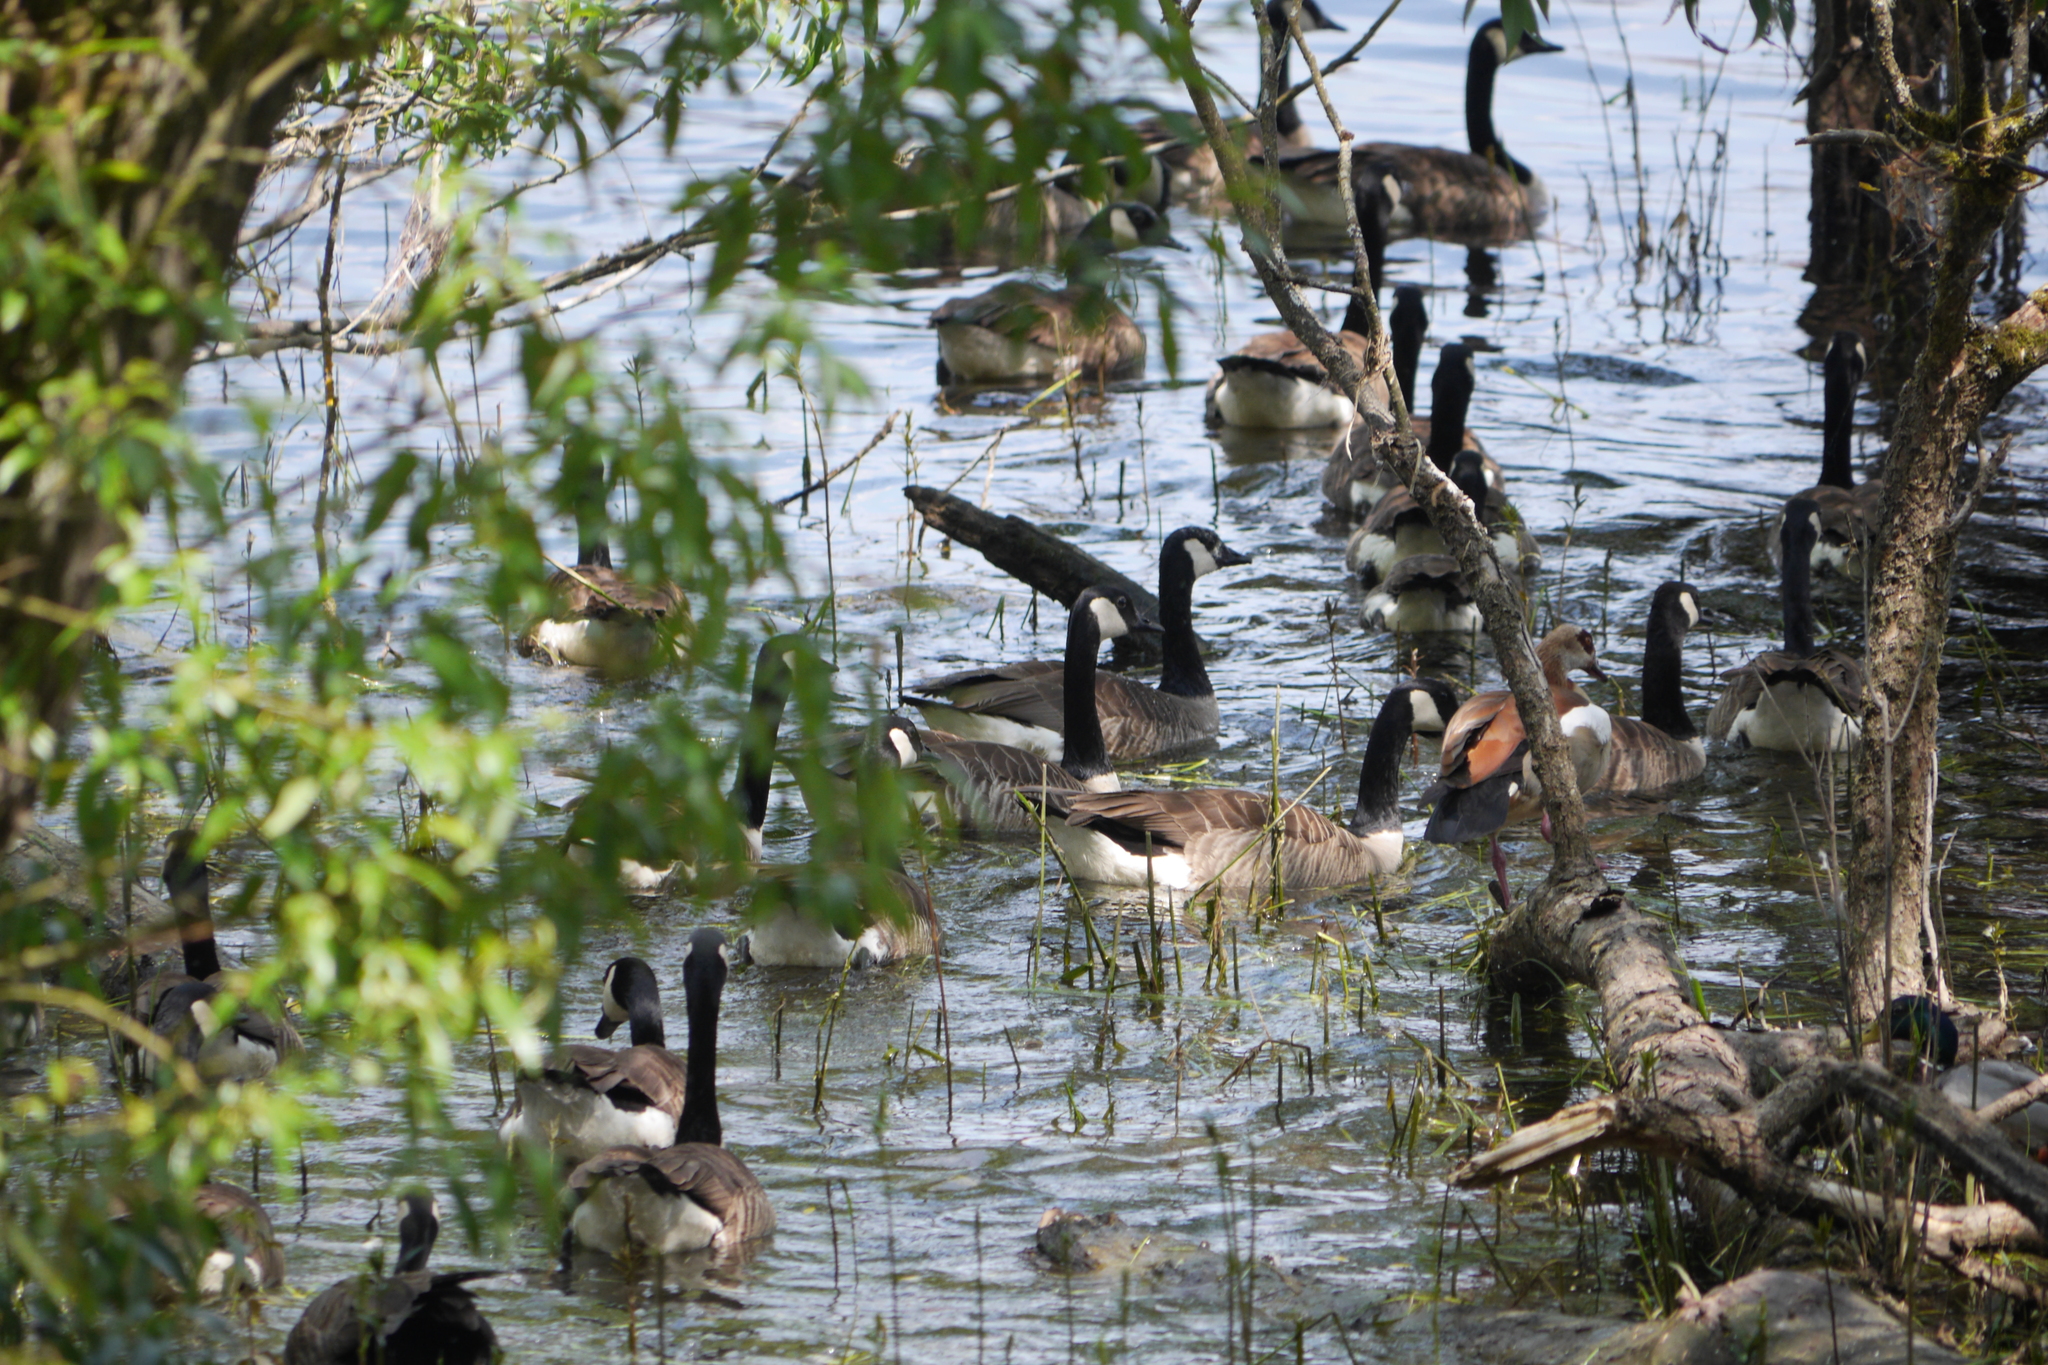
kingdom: Animalia
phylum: Chordata
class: Aves
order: Anseriformes
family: Anatidae
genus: Branta
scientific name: Branta canadensis
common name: Canada goose
